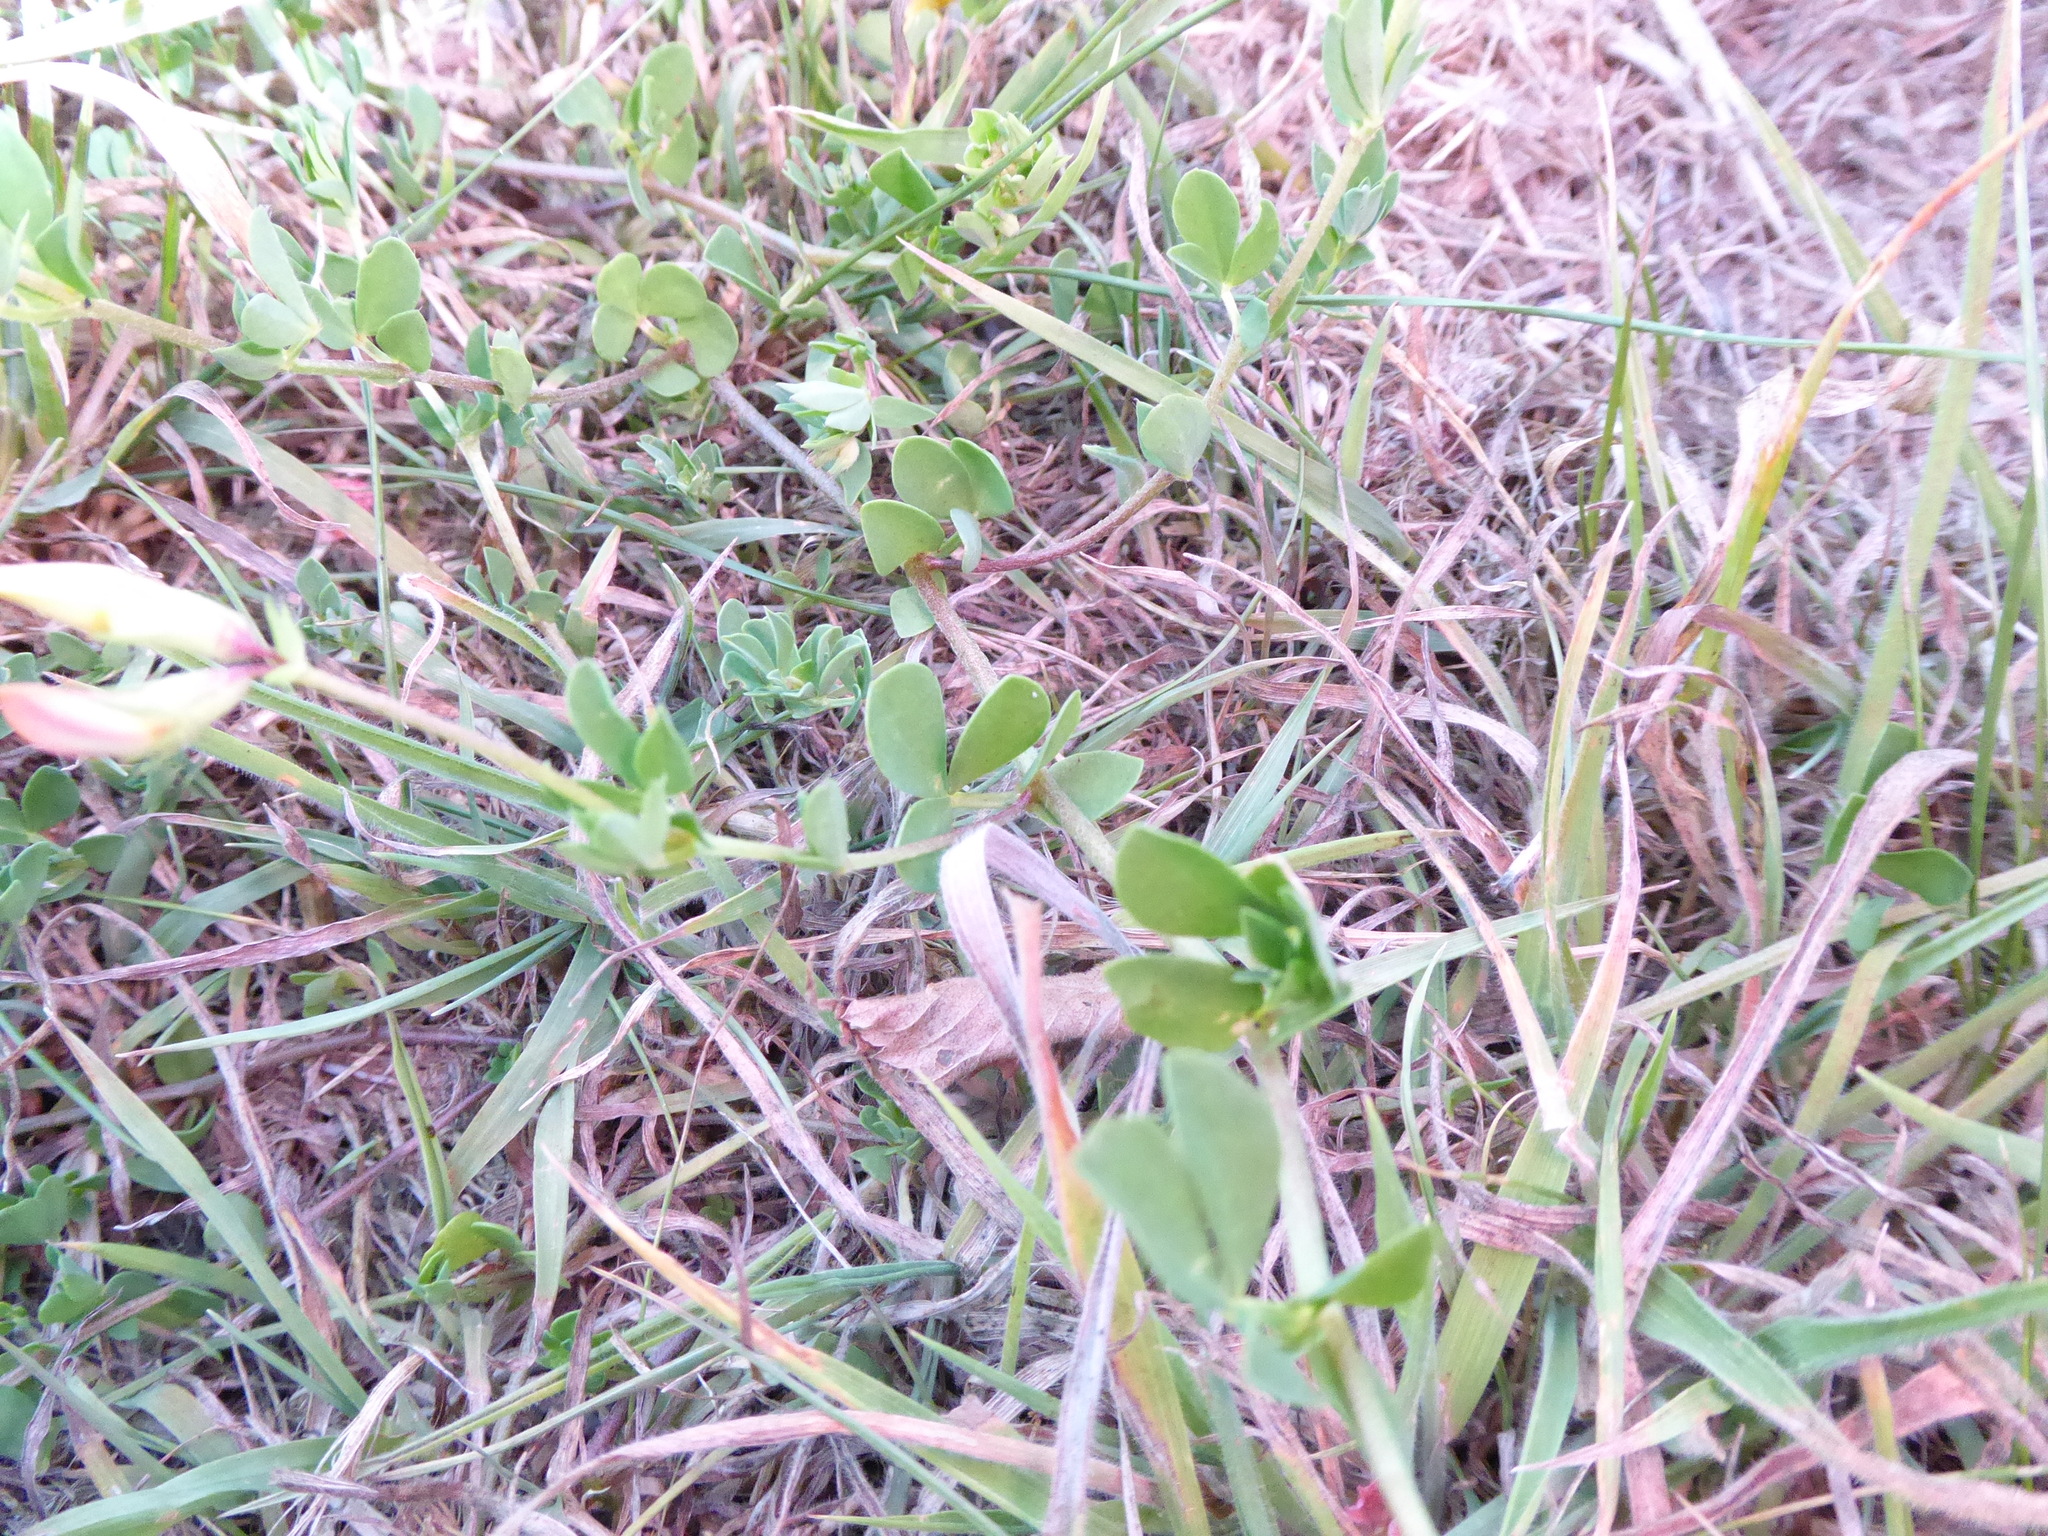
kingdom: Plantae
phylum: Tracheophyta
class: Magnoliopsida
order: Fabales
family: Fabaceae
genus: Lotus
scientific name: Lotus corniculatus
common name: Common bird's-foot-trefoil
